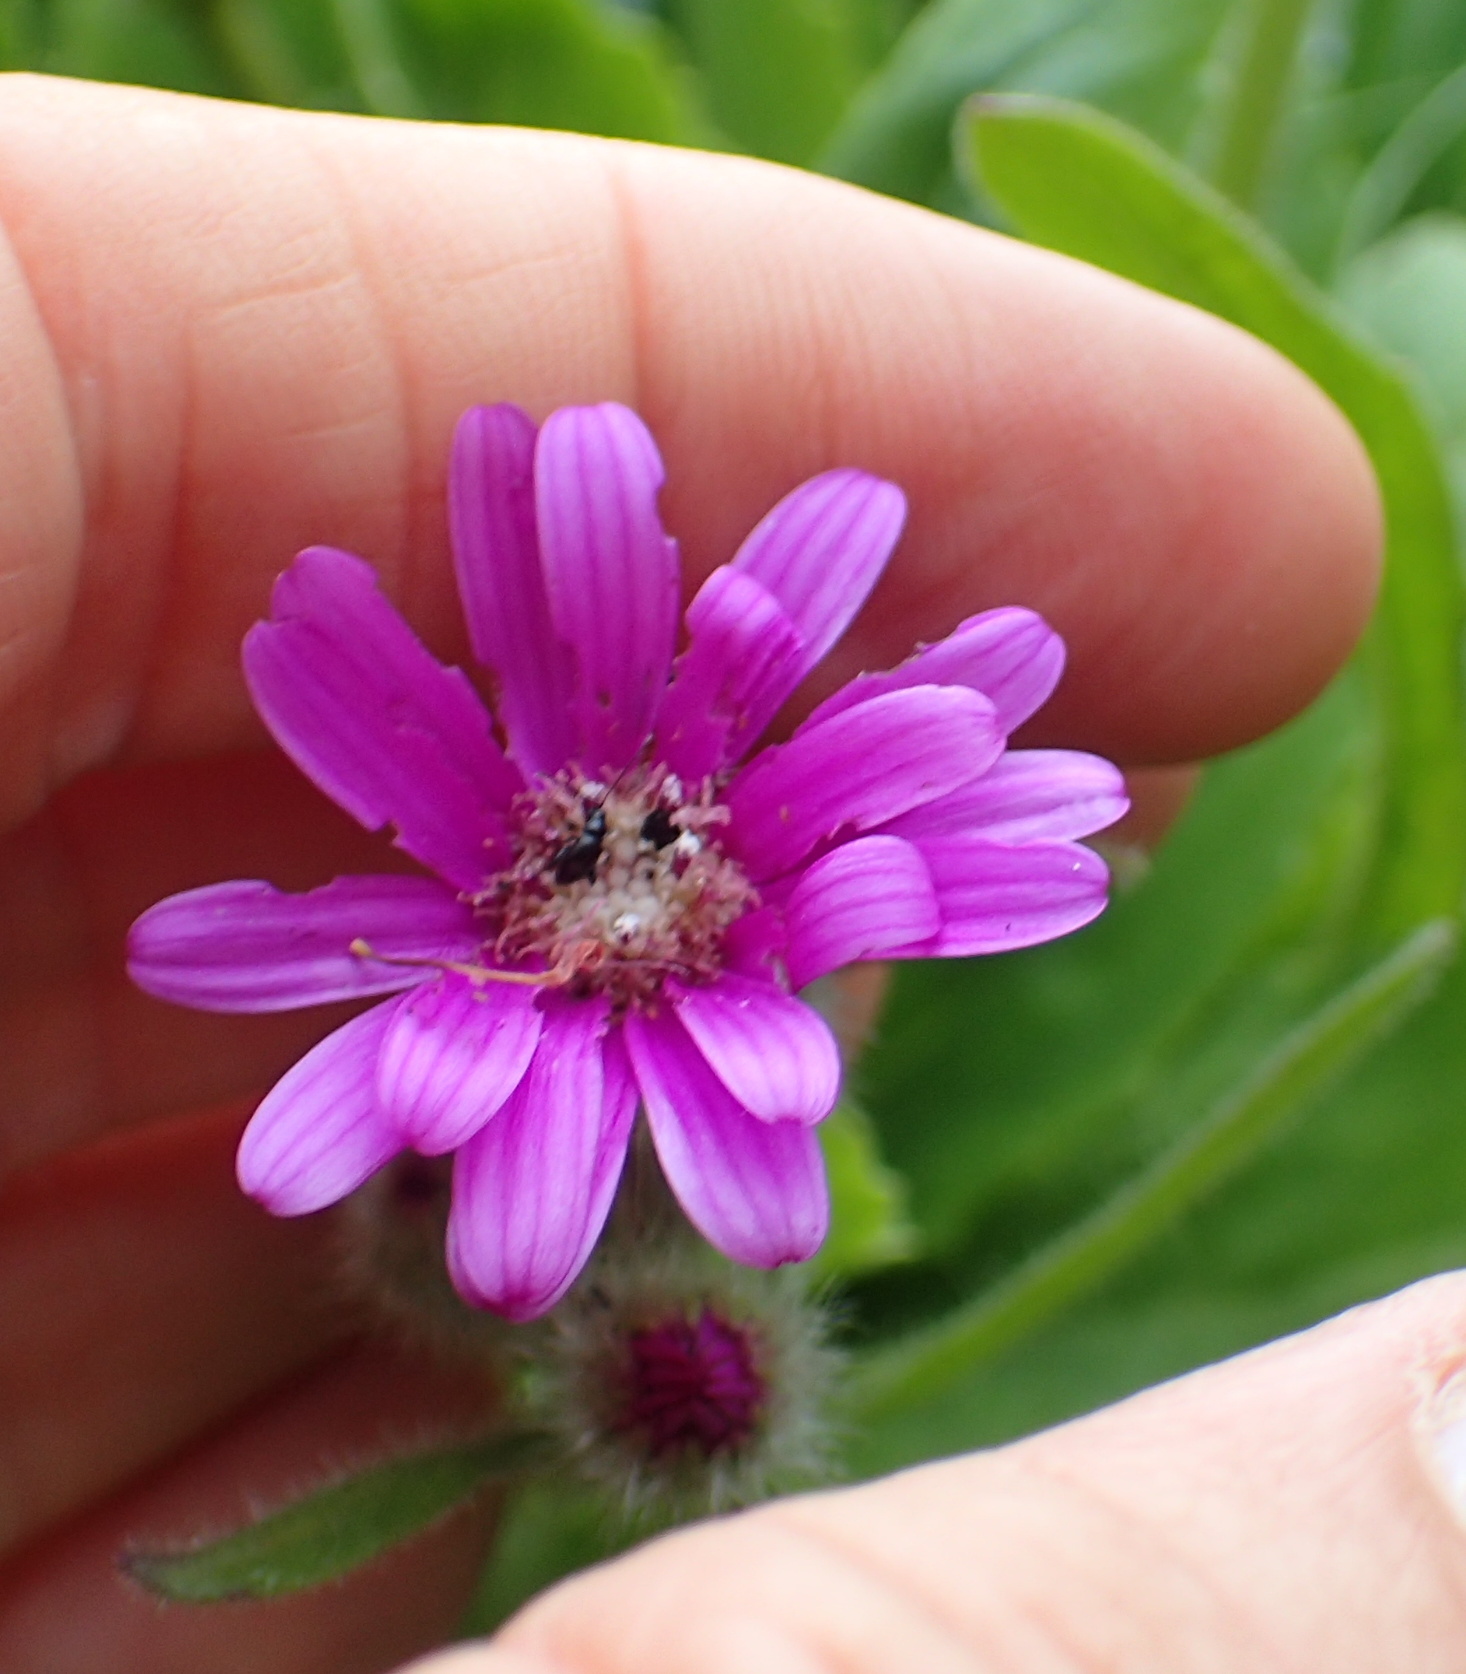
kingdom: Plantae
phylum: Tracheophyta
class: Magnoliopsida
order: Asterales
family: Asteraceae
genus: Senecio
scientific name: Senecio speciosus
